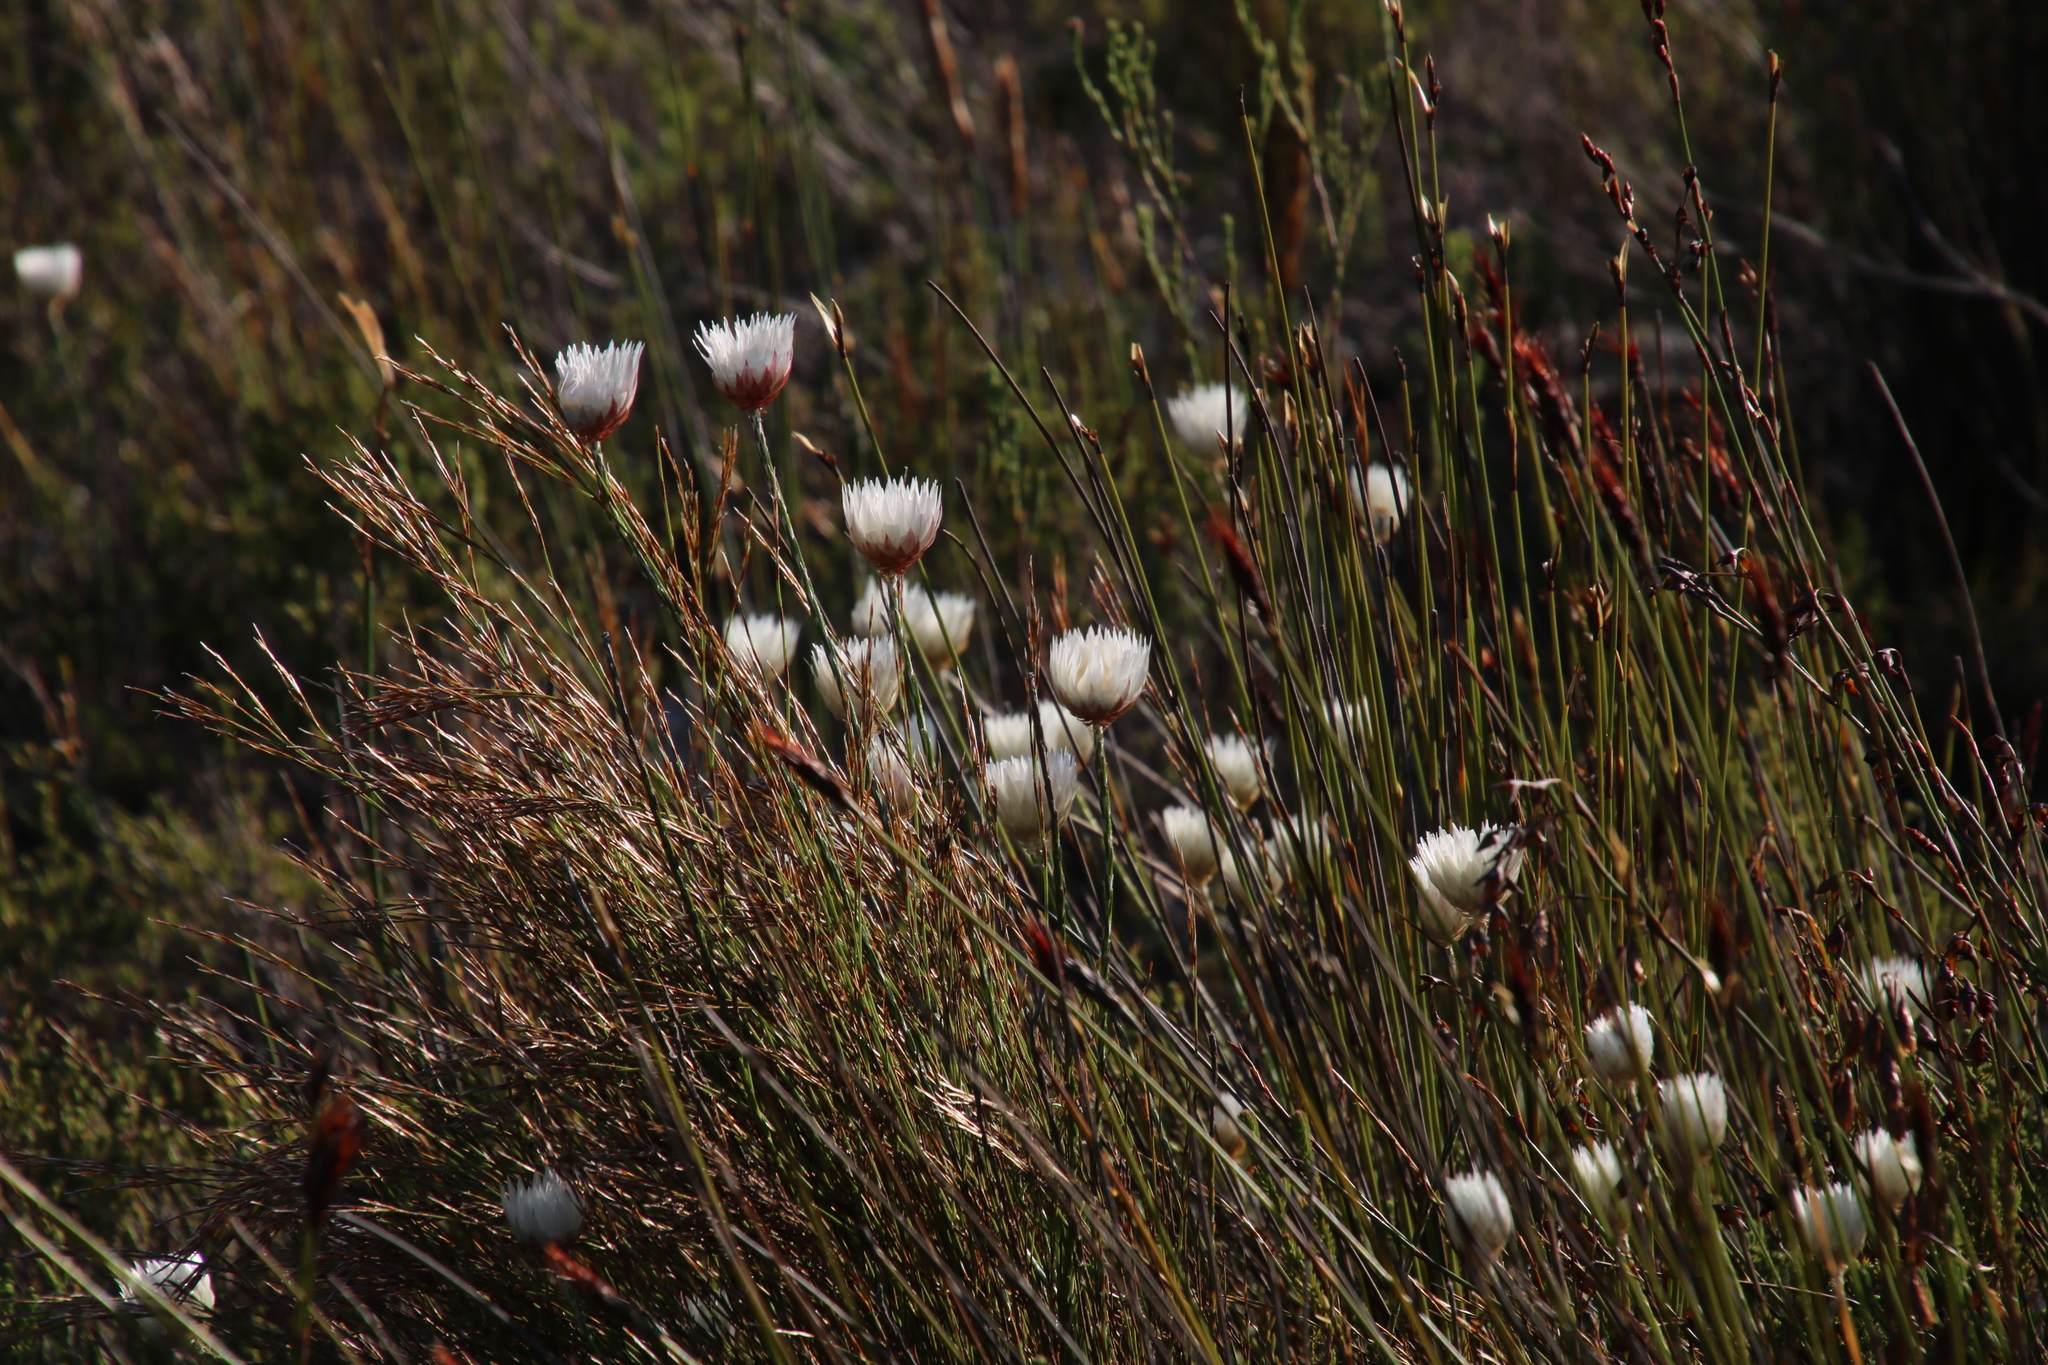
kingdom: Plantae
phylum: Tracheophyta
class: Magnoliopsida
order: Asterales
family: Asteraceae
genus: Edmondia
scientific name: Edmondia sesamoides
